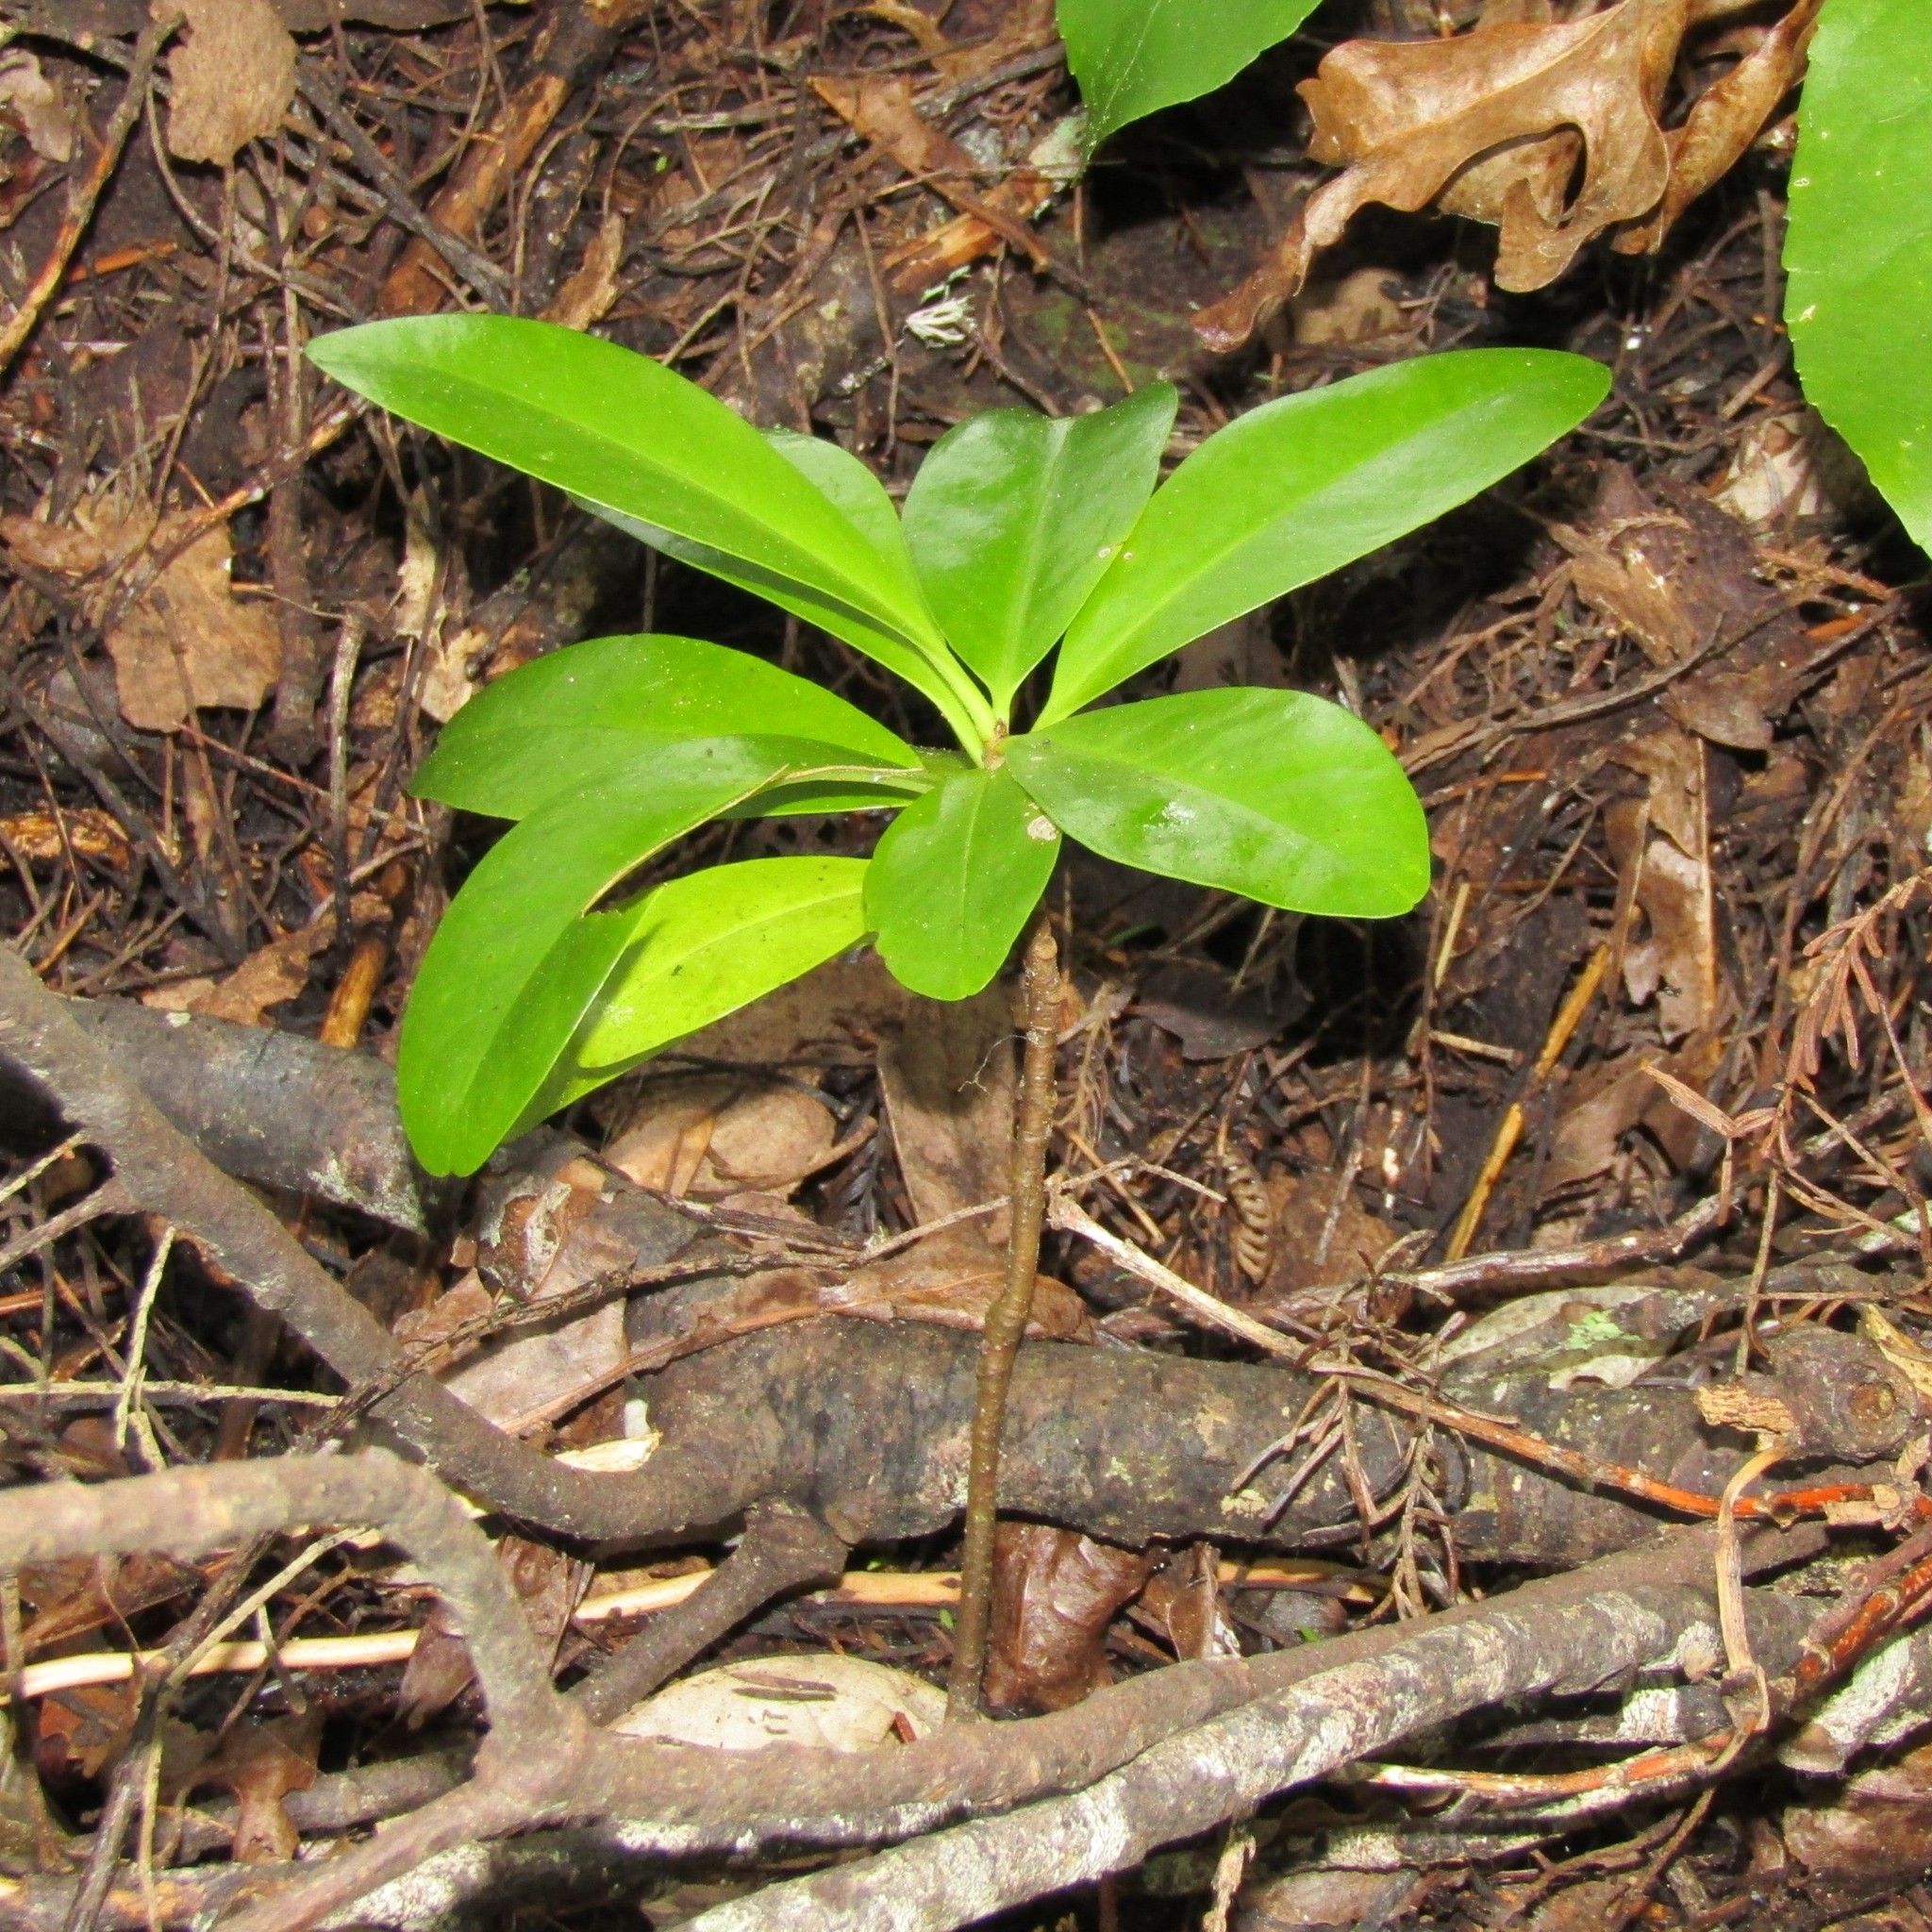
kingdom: Plantae
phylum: Tracheophyta
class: Magnoliopsida
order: Cucurbitales
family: Corynocarpaceae
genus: Corynocarpus
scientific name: Corynocarpus laevigatus
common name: New zealand laurel
